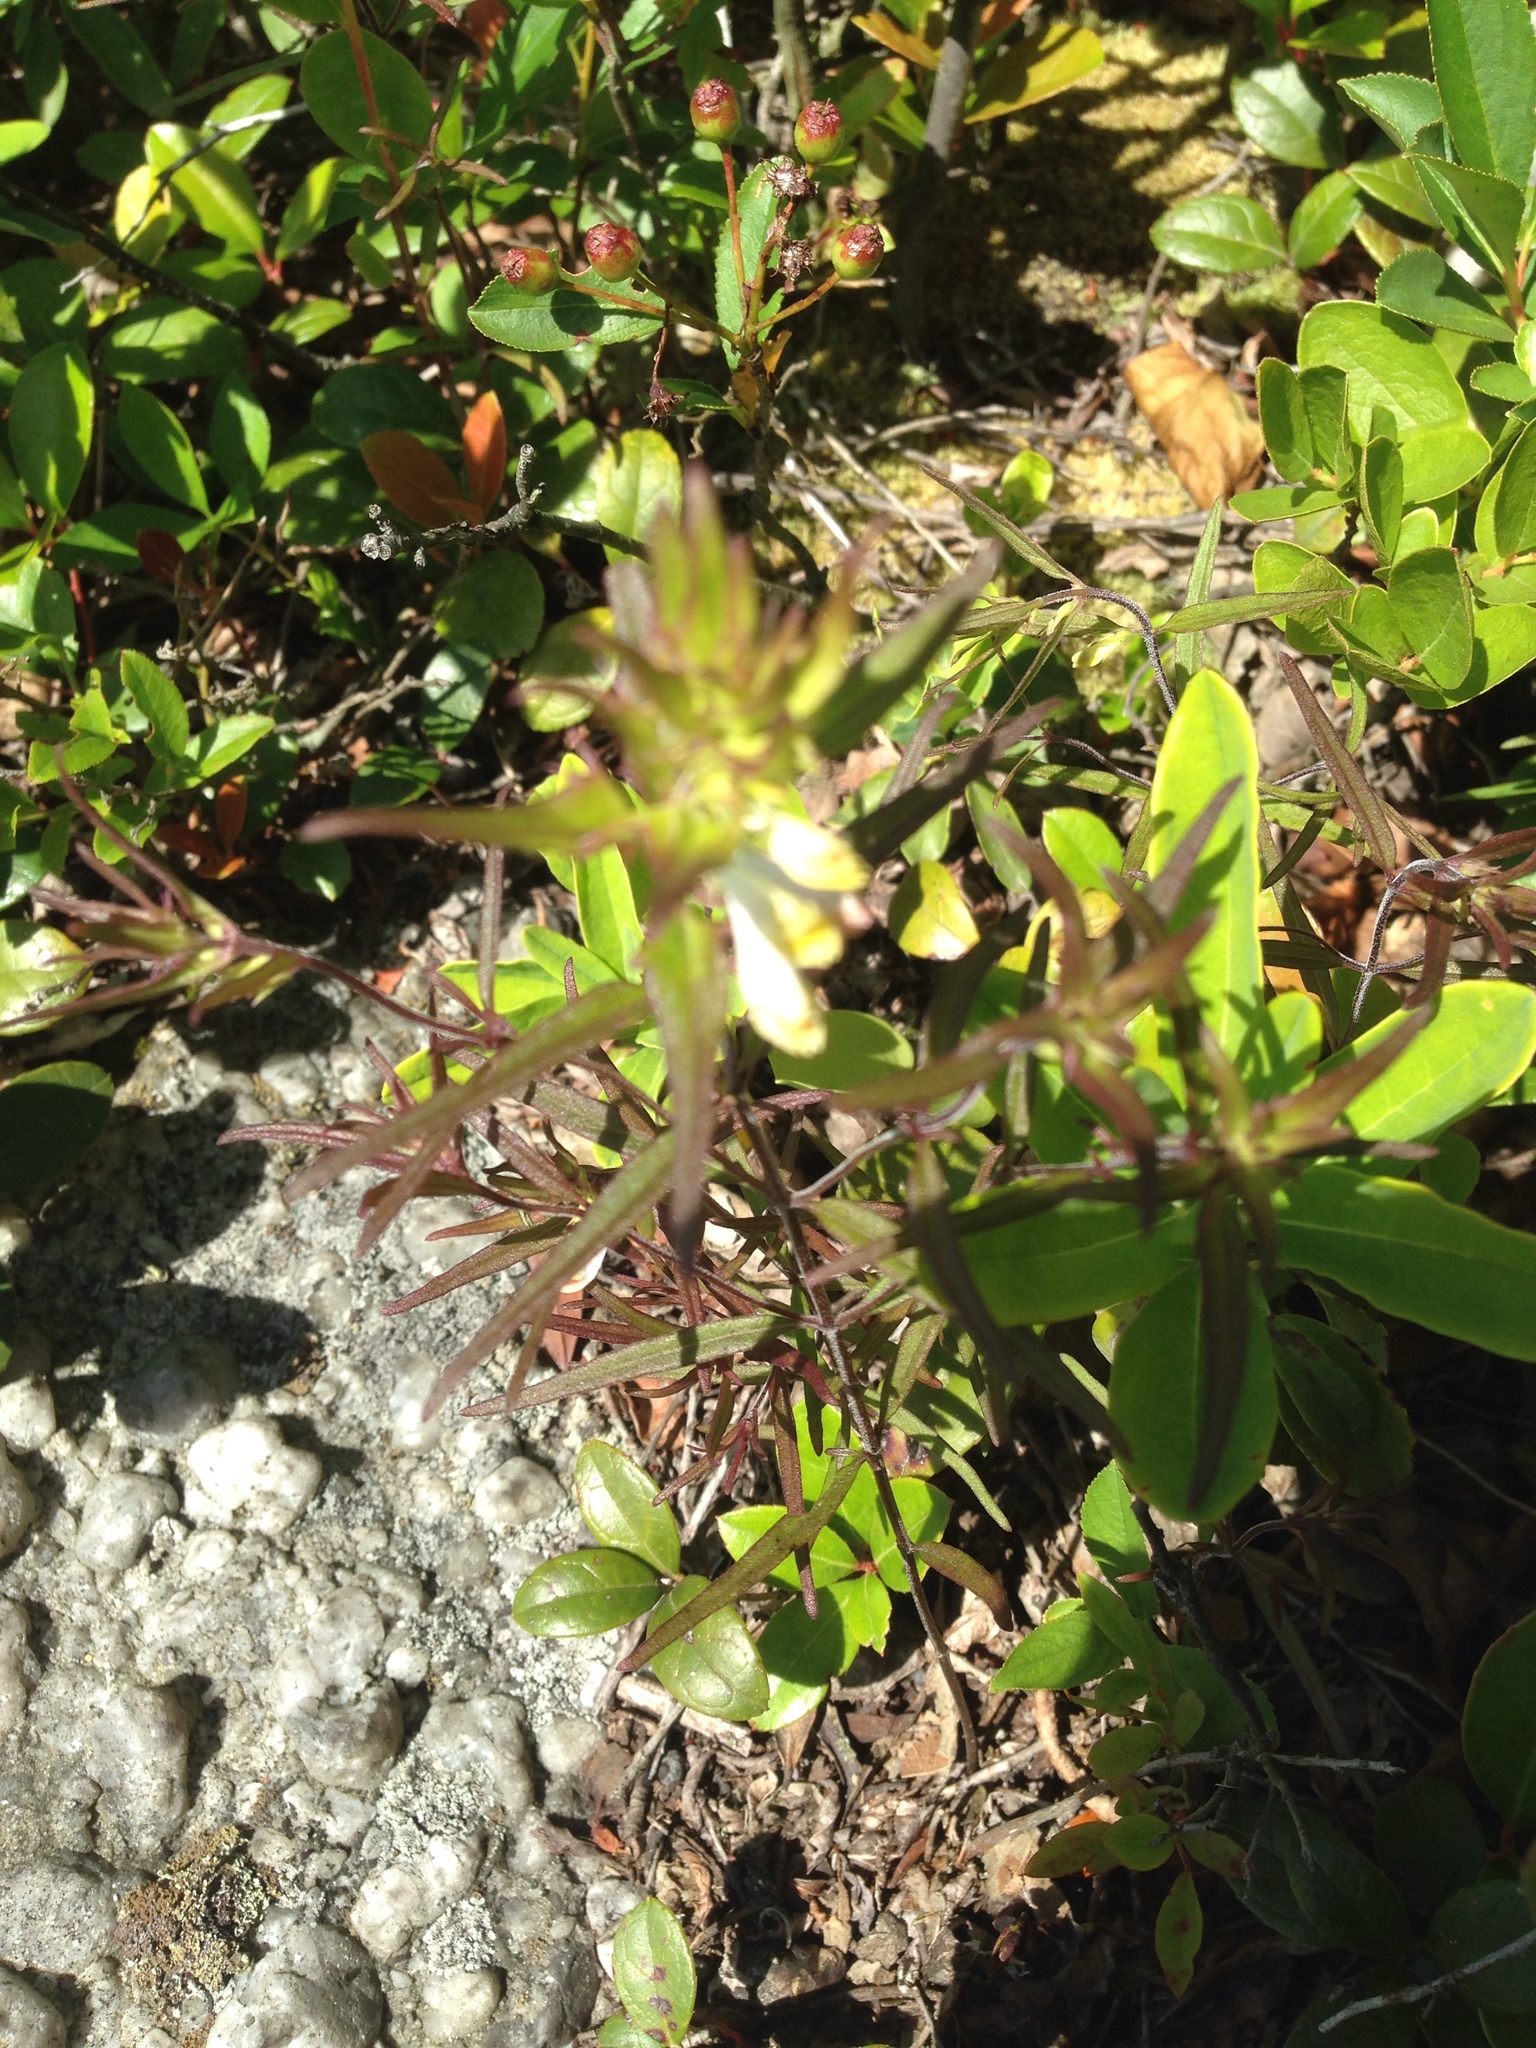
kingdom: Plantae
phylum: Tracheophyta
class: Magnoliopsida
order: Lamiales
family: Orobanchaceae
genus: Melampyrum
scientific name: Melampyrum lineare
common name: American cow-wheat
